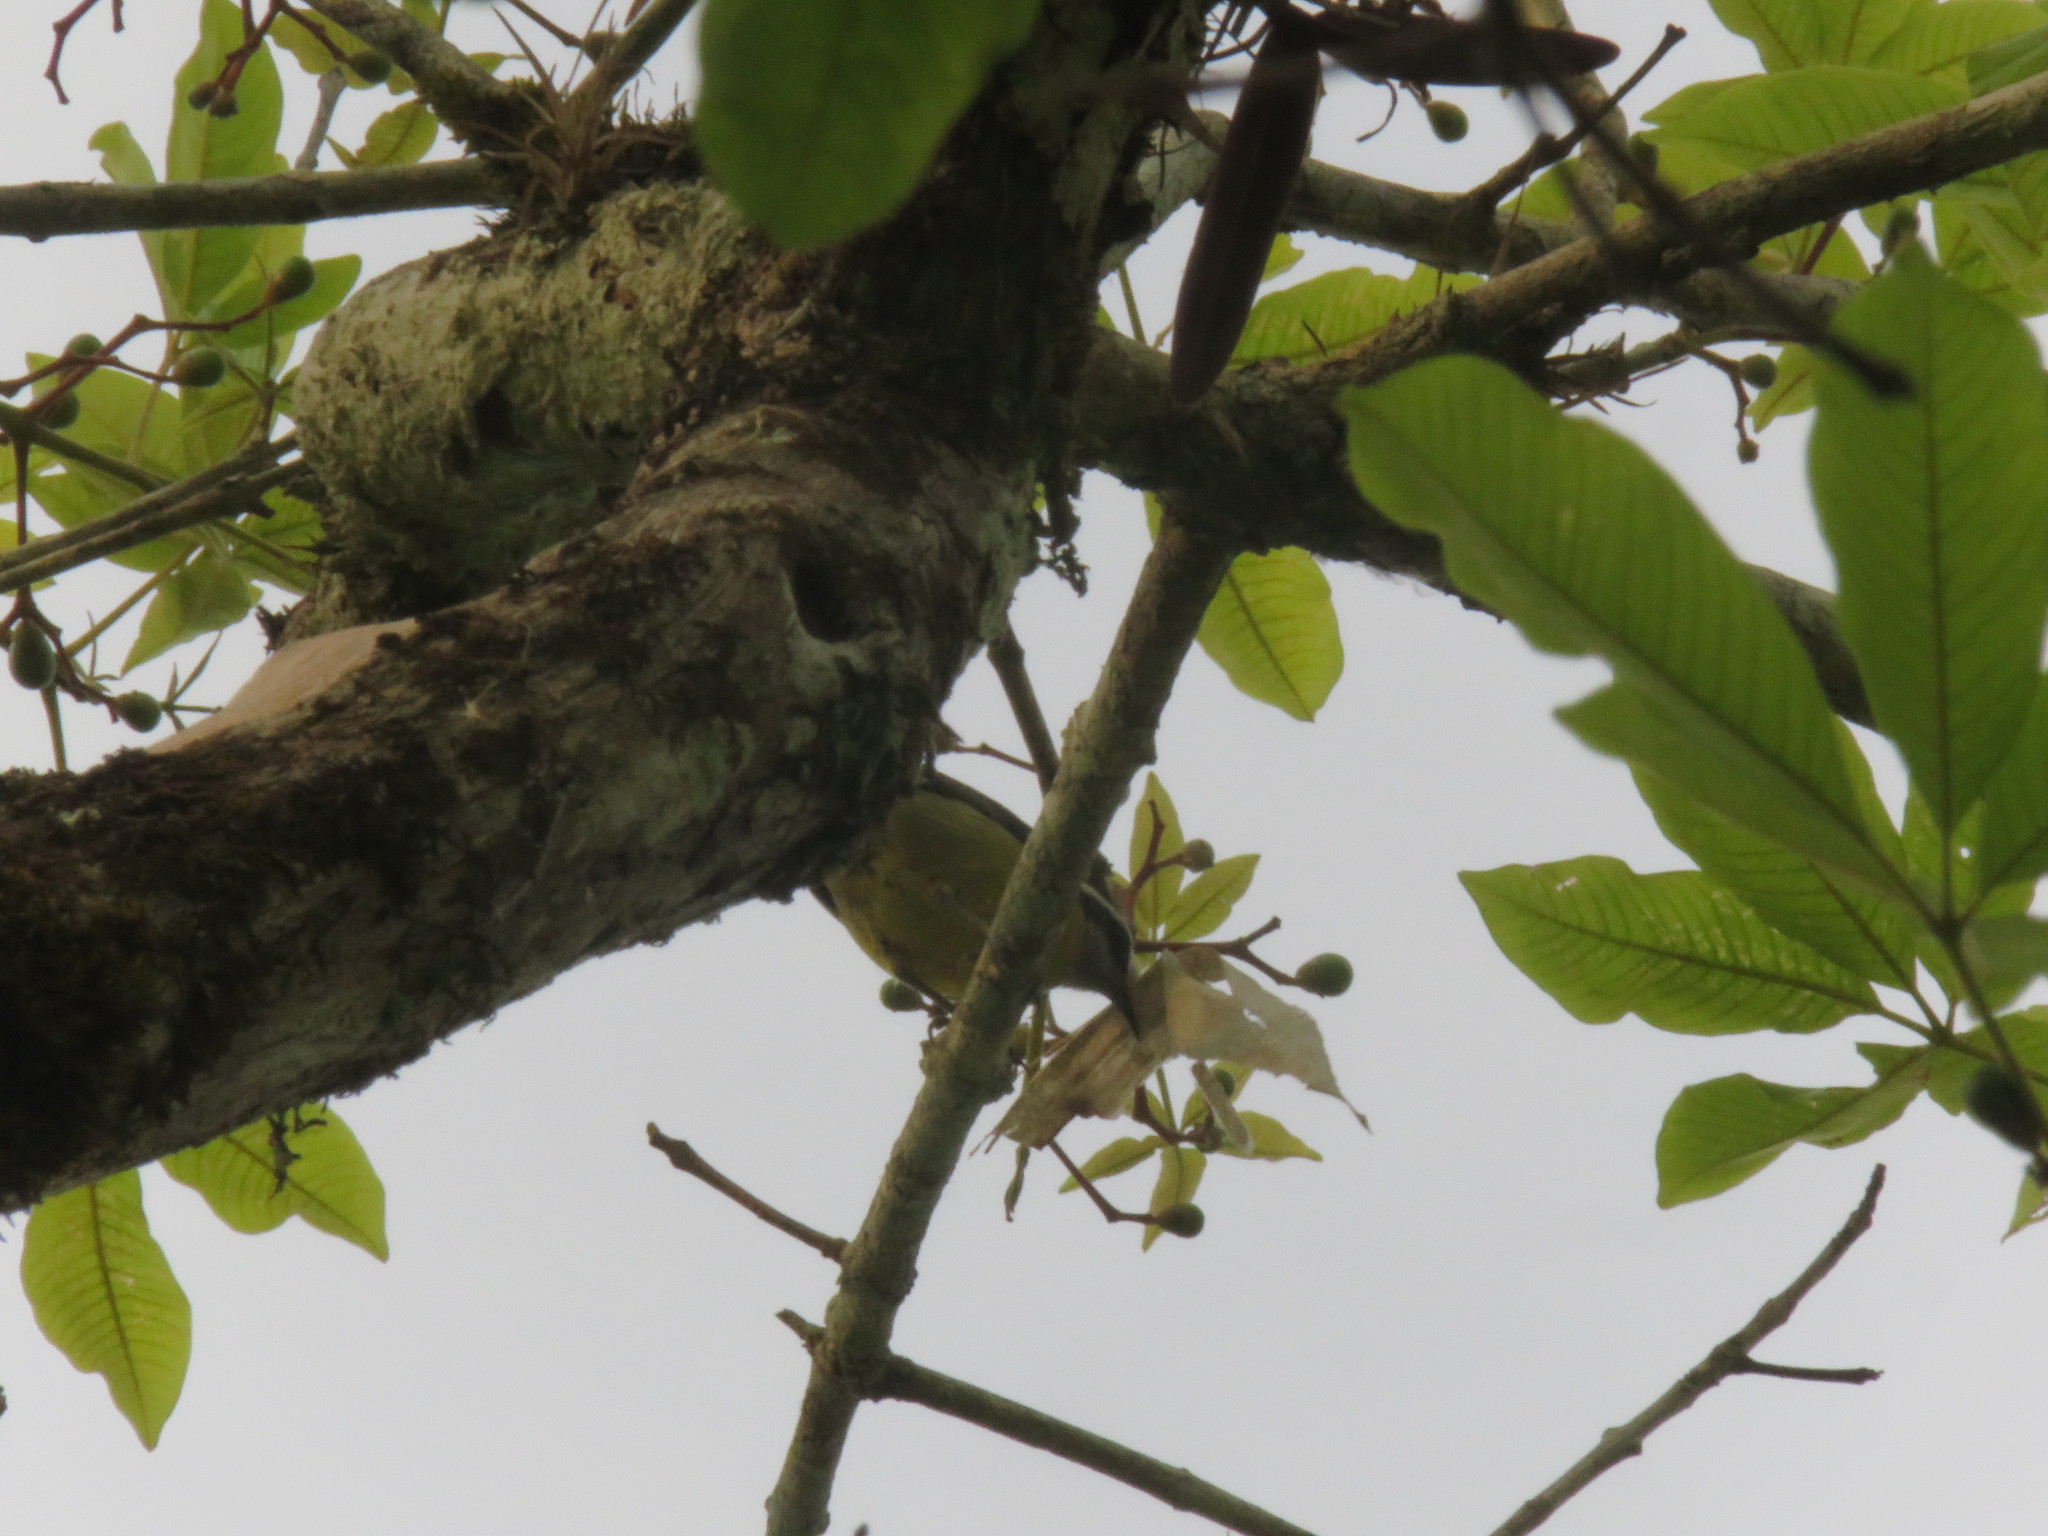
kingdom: Animalia
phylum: Chordata
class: Aves
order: Passeriformes
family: Thraupidae
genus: Coereba
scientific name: Coereba flaveola
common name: Bananaquit
